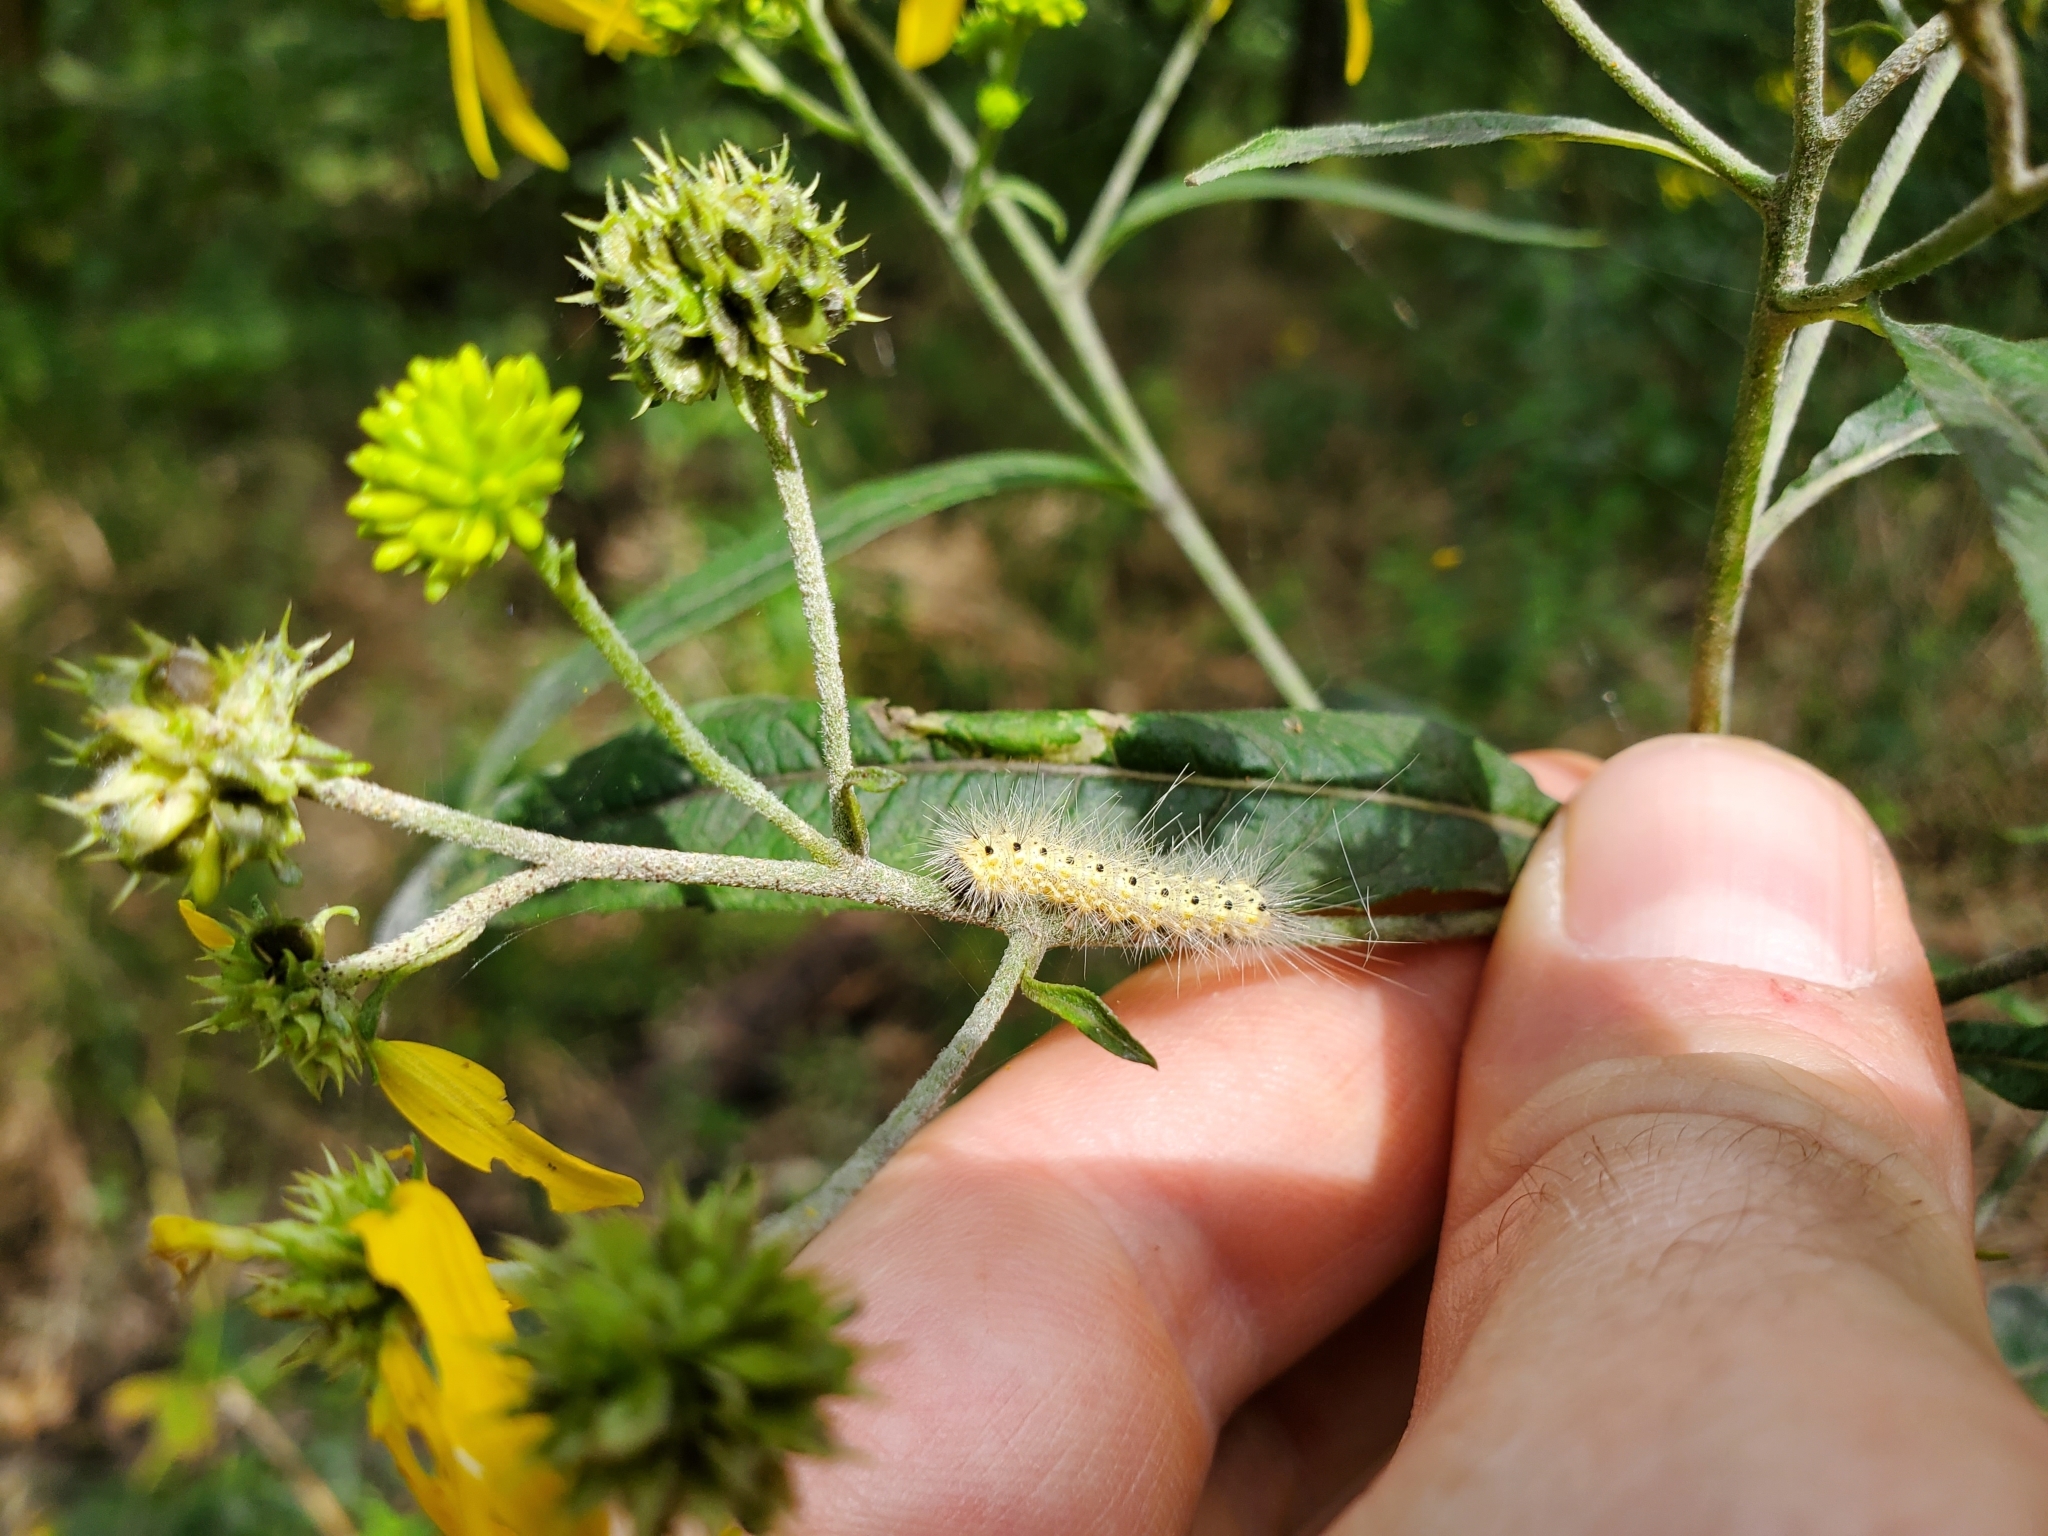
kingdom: Animalia
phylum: Arthropoda
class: Insecta
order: Lepidoptera
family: Erebidae
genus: Hyphantria
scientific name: Hyphantria cunea
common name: American white moth
